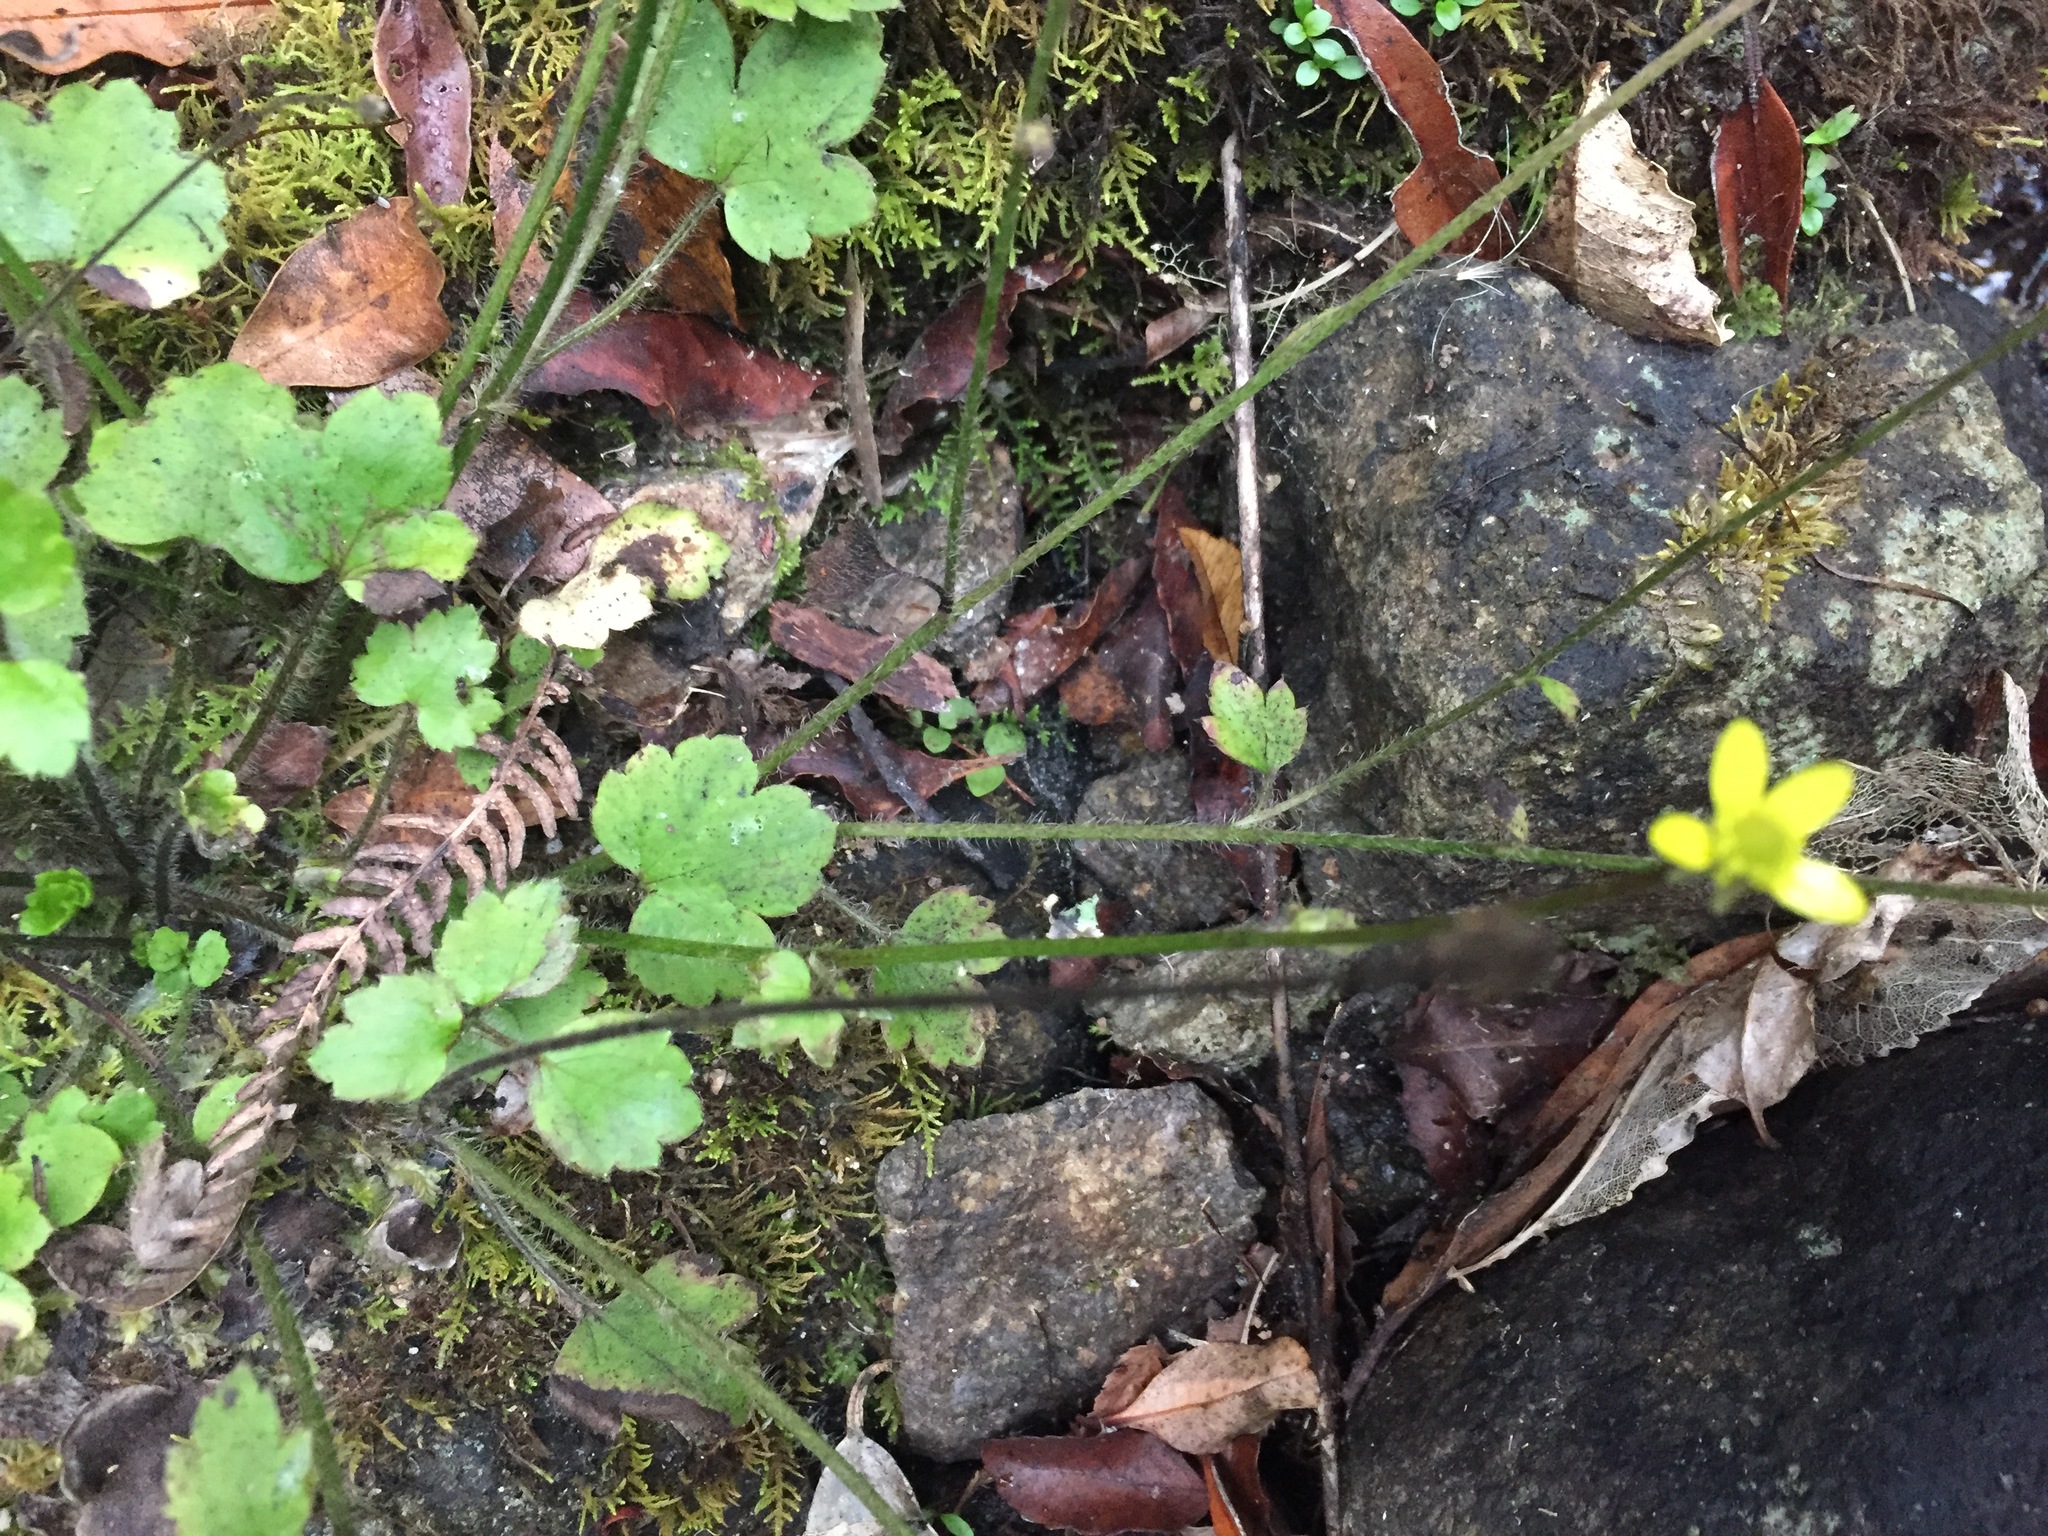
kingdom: Plantae
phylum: Tracheophyta
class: Magnoliopsida
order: Ranunculales
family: Ranunculaceae
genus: Ranunculus
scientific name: Ranunculus reflexus
